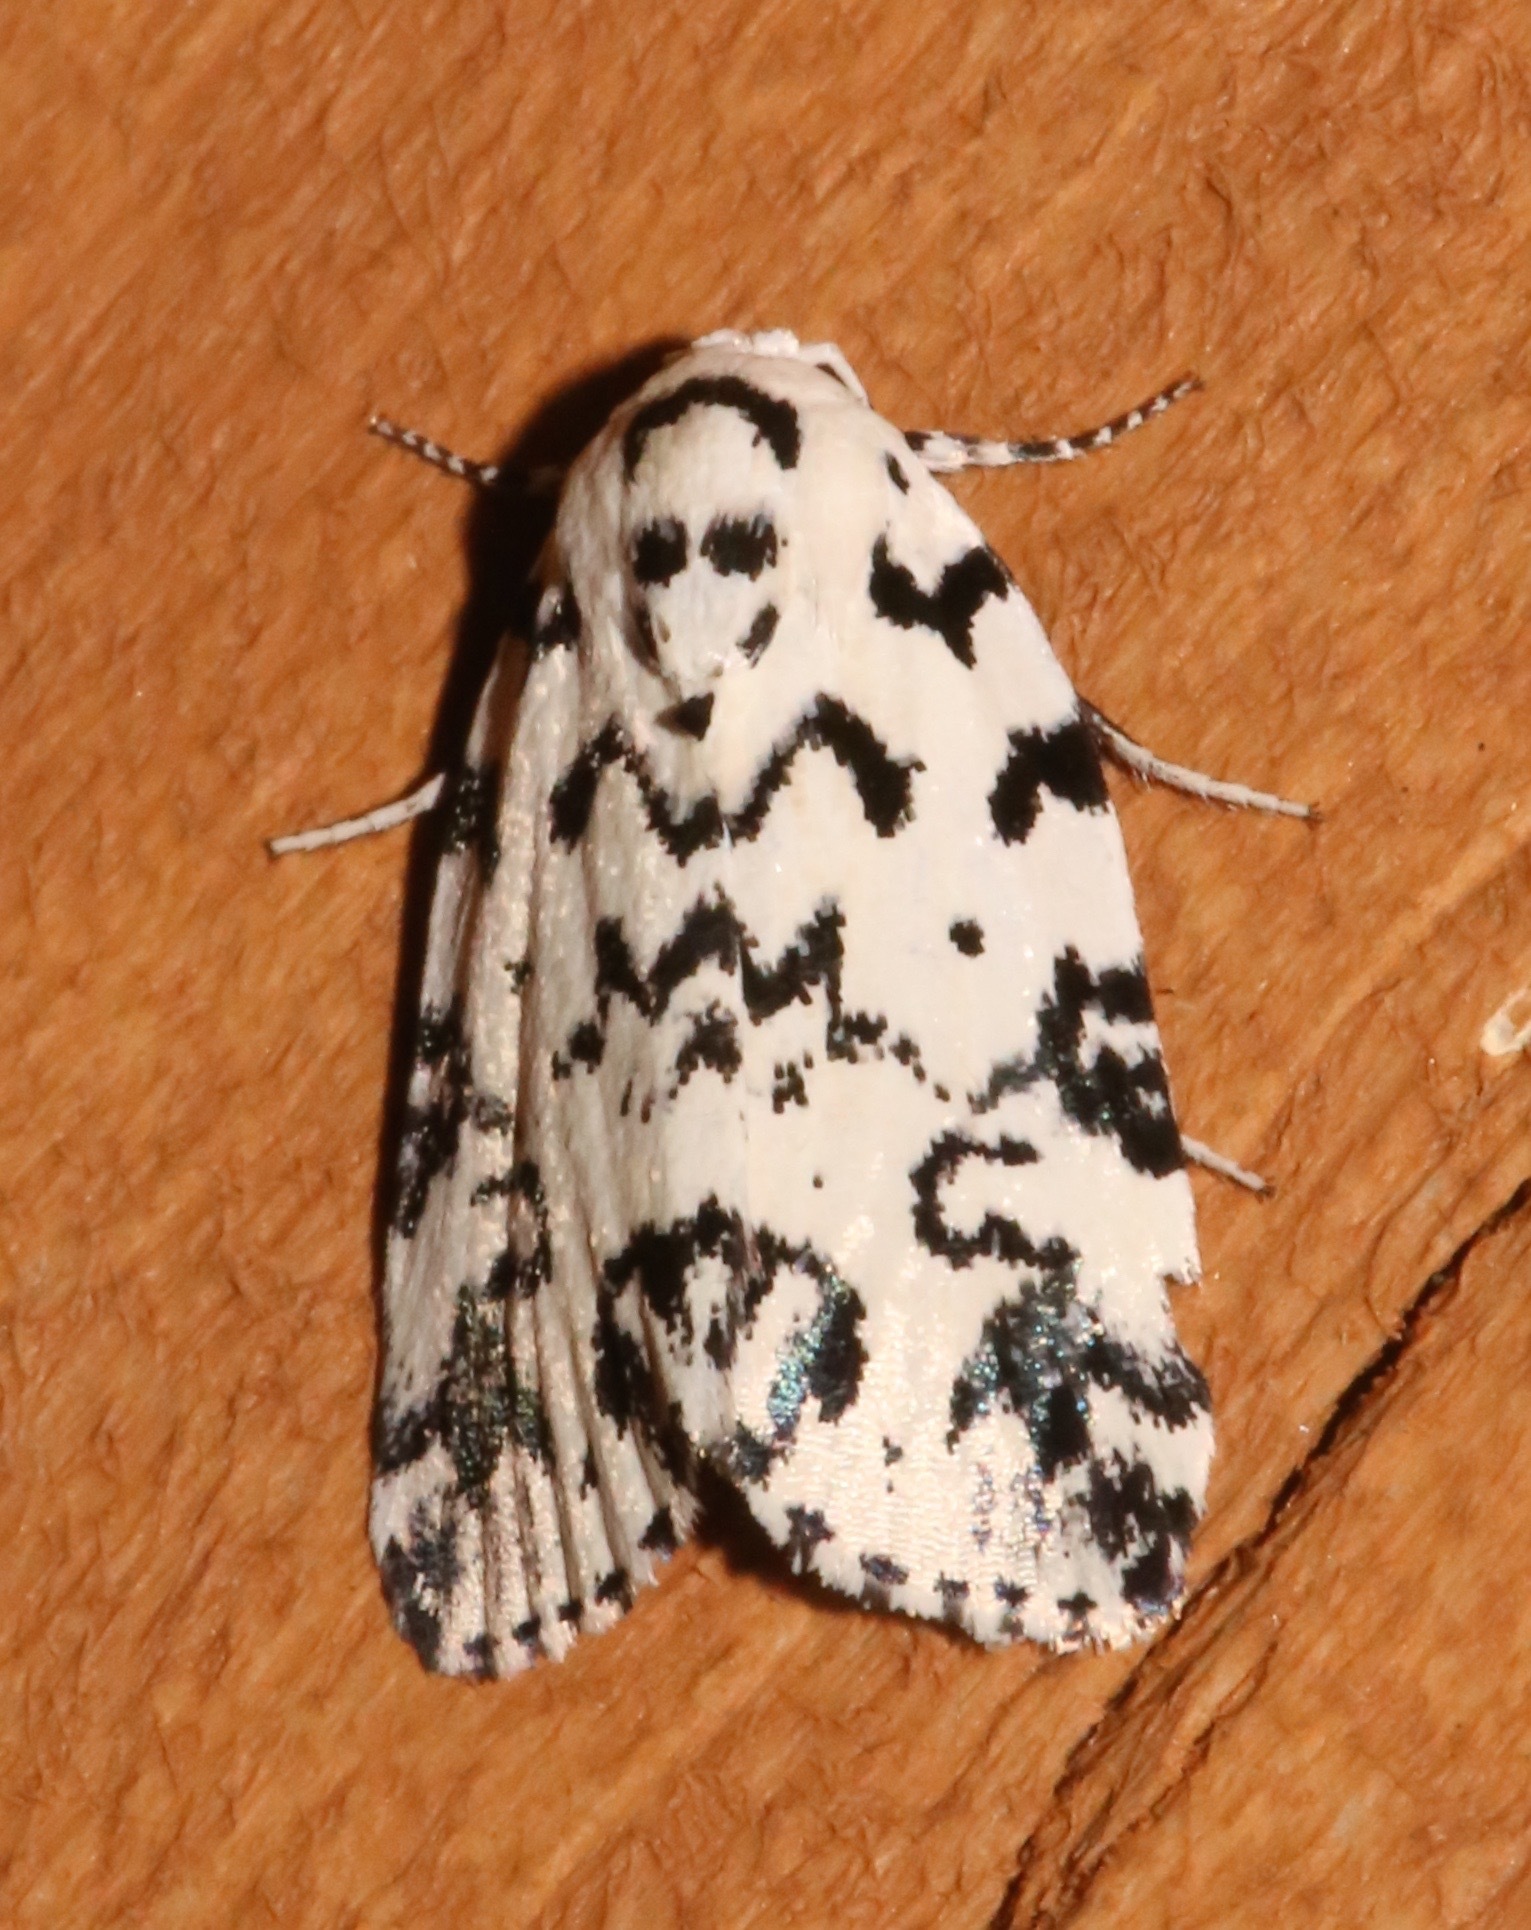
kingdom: Animalia
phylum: Arthropoda
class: Insecta
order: Lepidoptera
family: Noctuidae
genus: Polygrammate
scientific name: Polygrammate hebraeicum
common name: Hebrew moth
